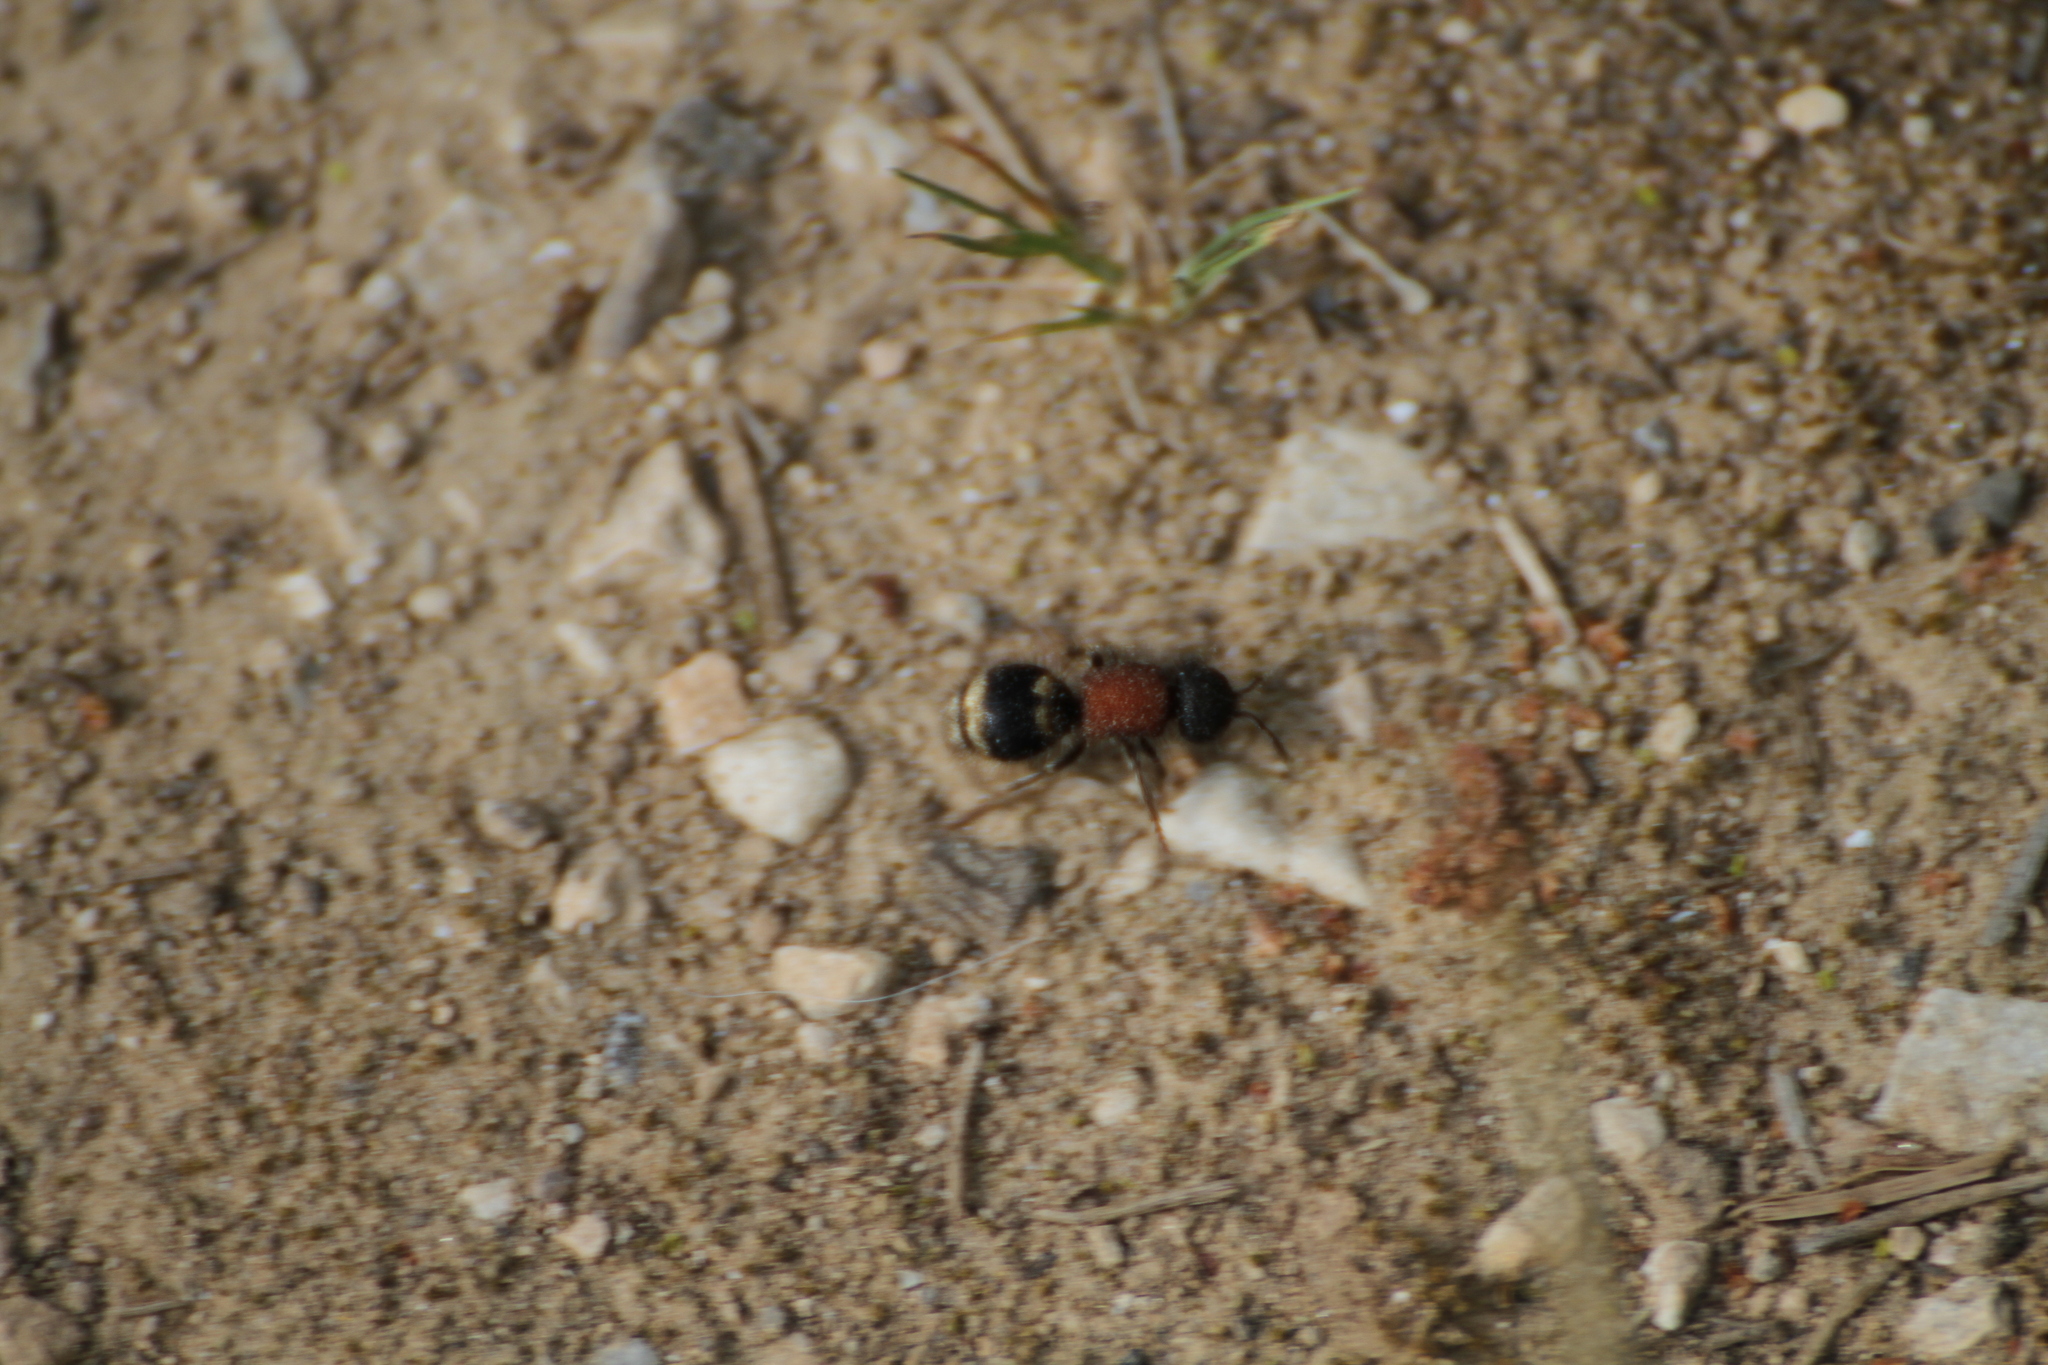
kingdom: Animalia
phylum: Arthropoda
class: Insecta
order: Hymenoptera
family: Mutillidae
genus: Tropidotilla
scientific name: Tropidotilla litoralis
